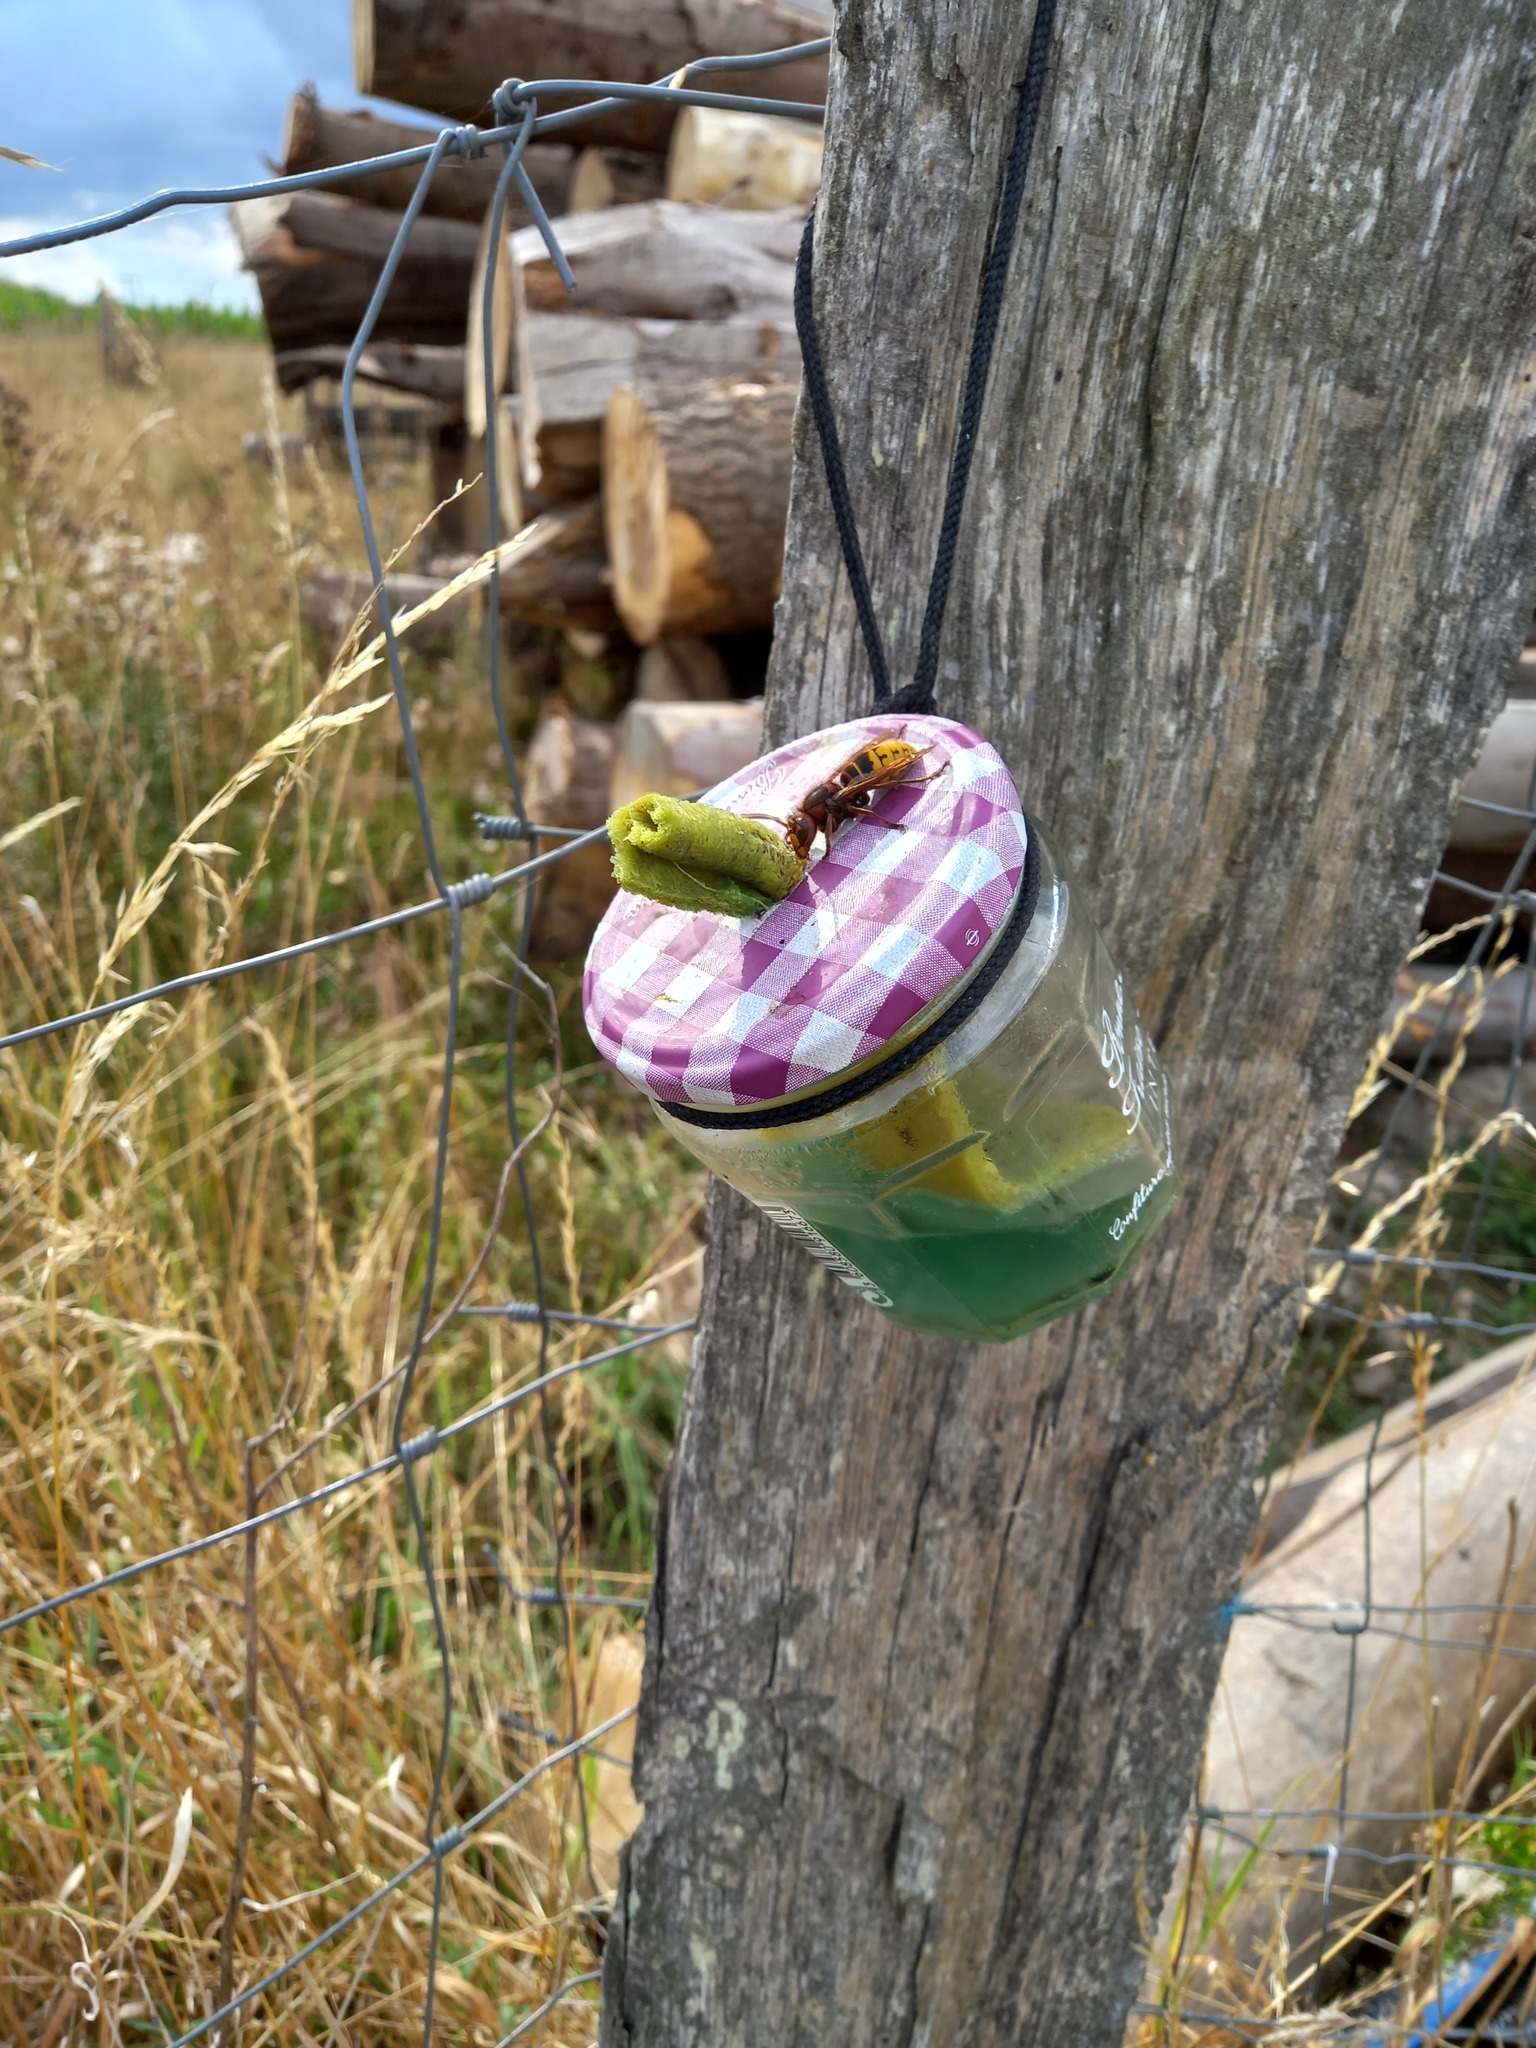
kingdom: Animalia
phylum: Arthropoda
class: Insecta
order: Hymenoptera
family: Vespidae
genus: Vespa
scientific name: Vespa crabro
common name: Hornet
